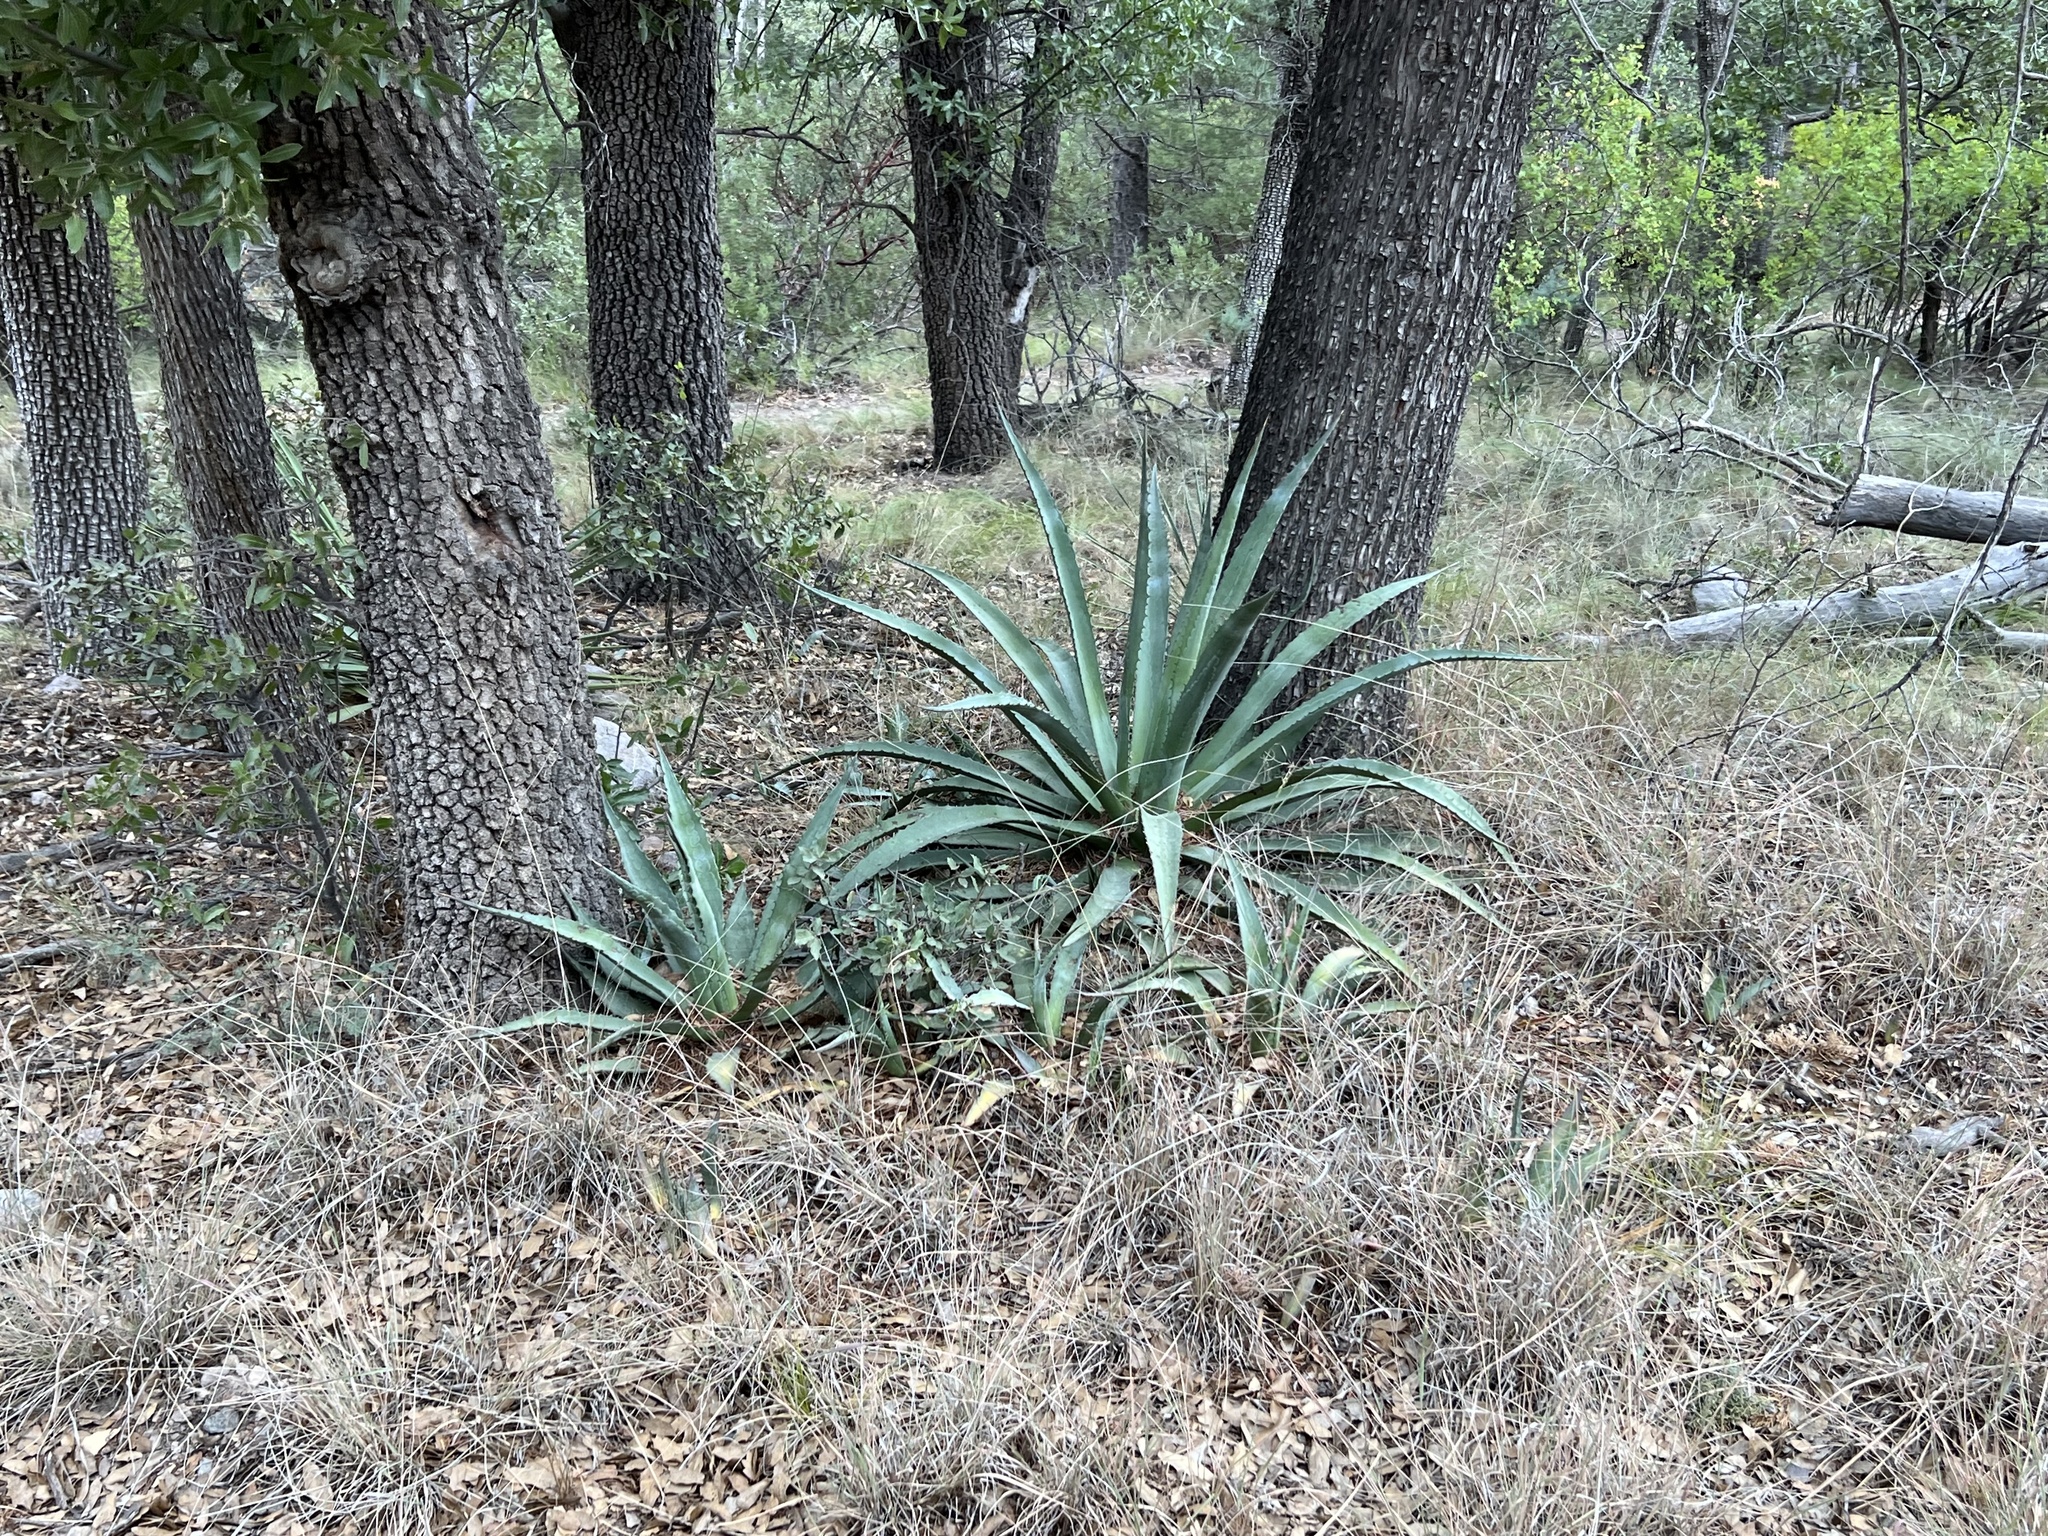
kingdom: Plantae
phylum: Tracheophyta
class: Liliopsida
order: Asparagales
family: Asparagaceae
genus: Agave
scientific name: Agave palmeri
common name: Palmer agave
